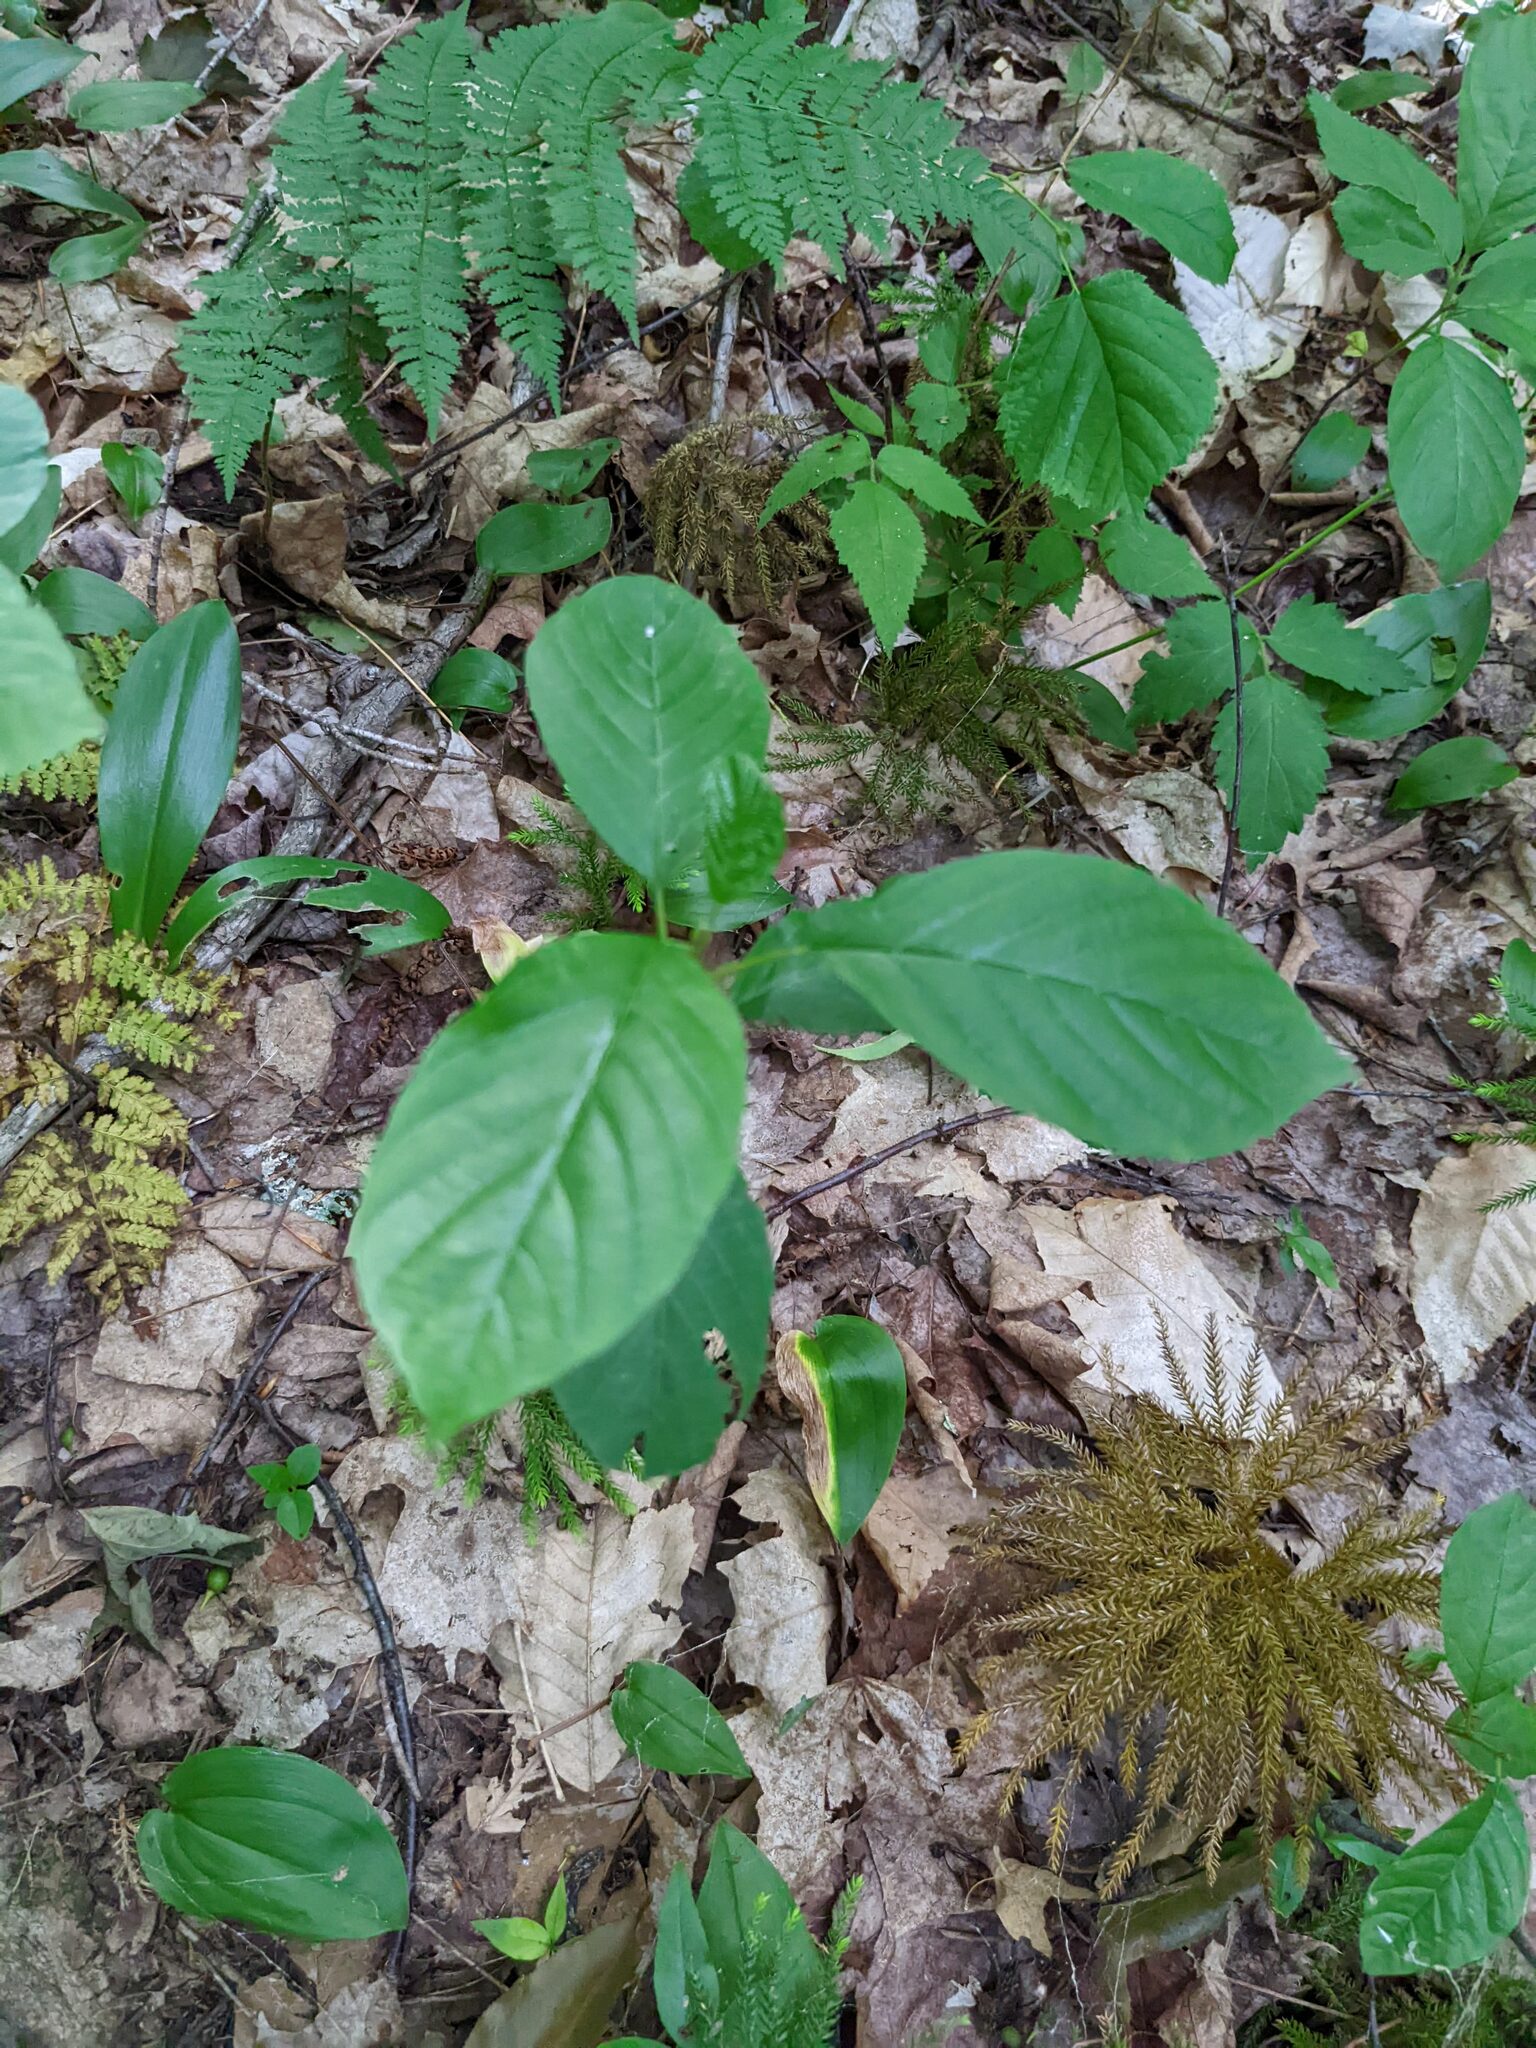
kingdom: Plantae
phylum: Tracheophyta
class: Magnoliopsida
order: Rosales
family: Rhamnaceae
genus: Frangula
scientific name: Frangula alnus
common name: Alder buckthorn
